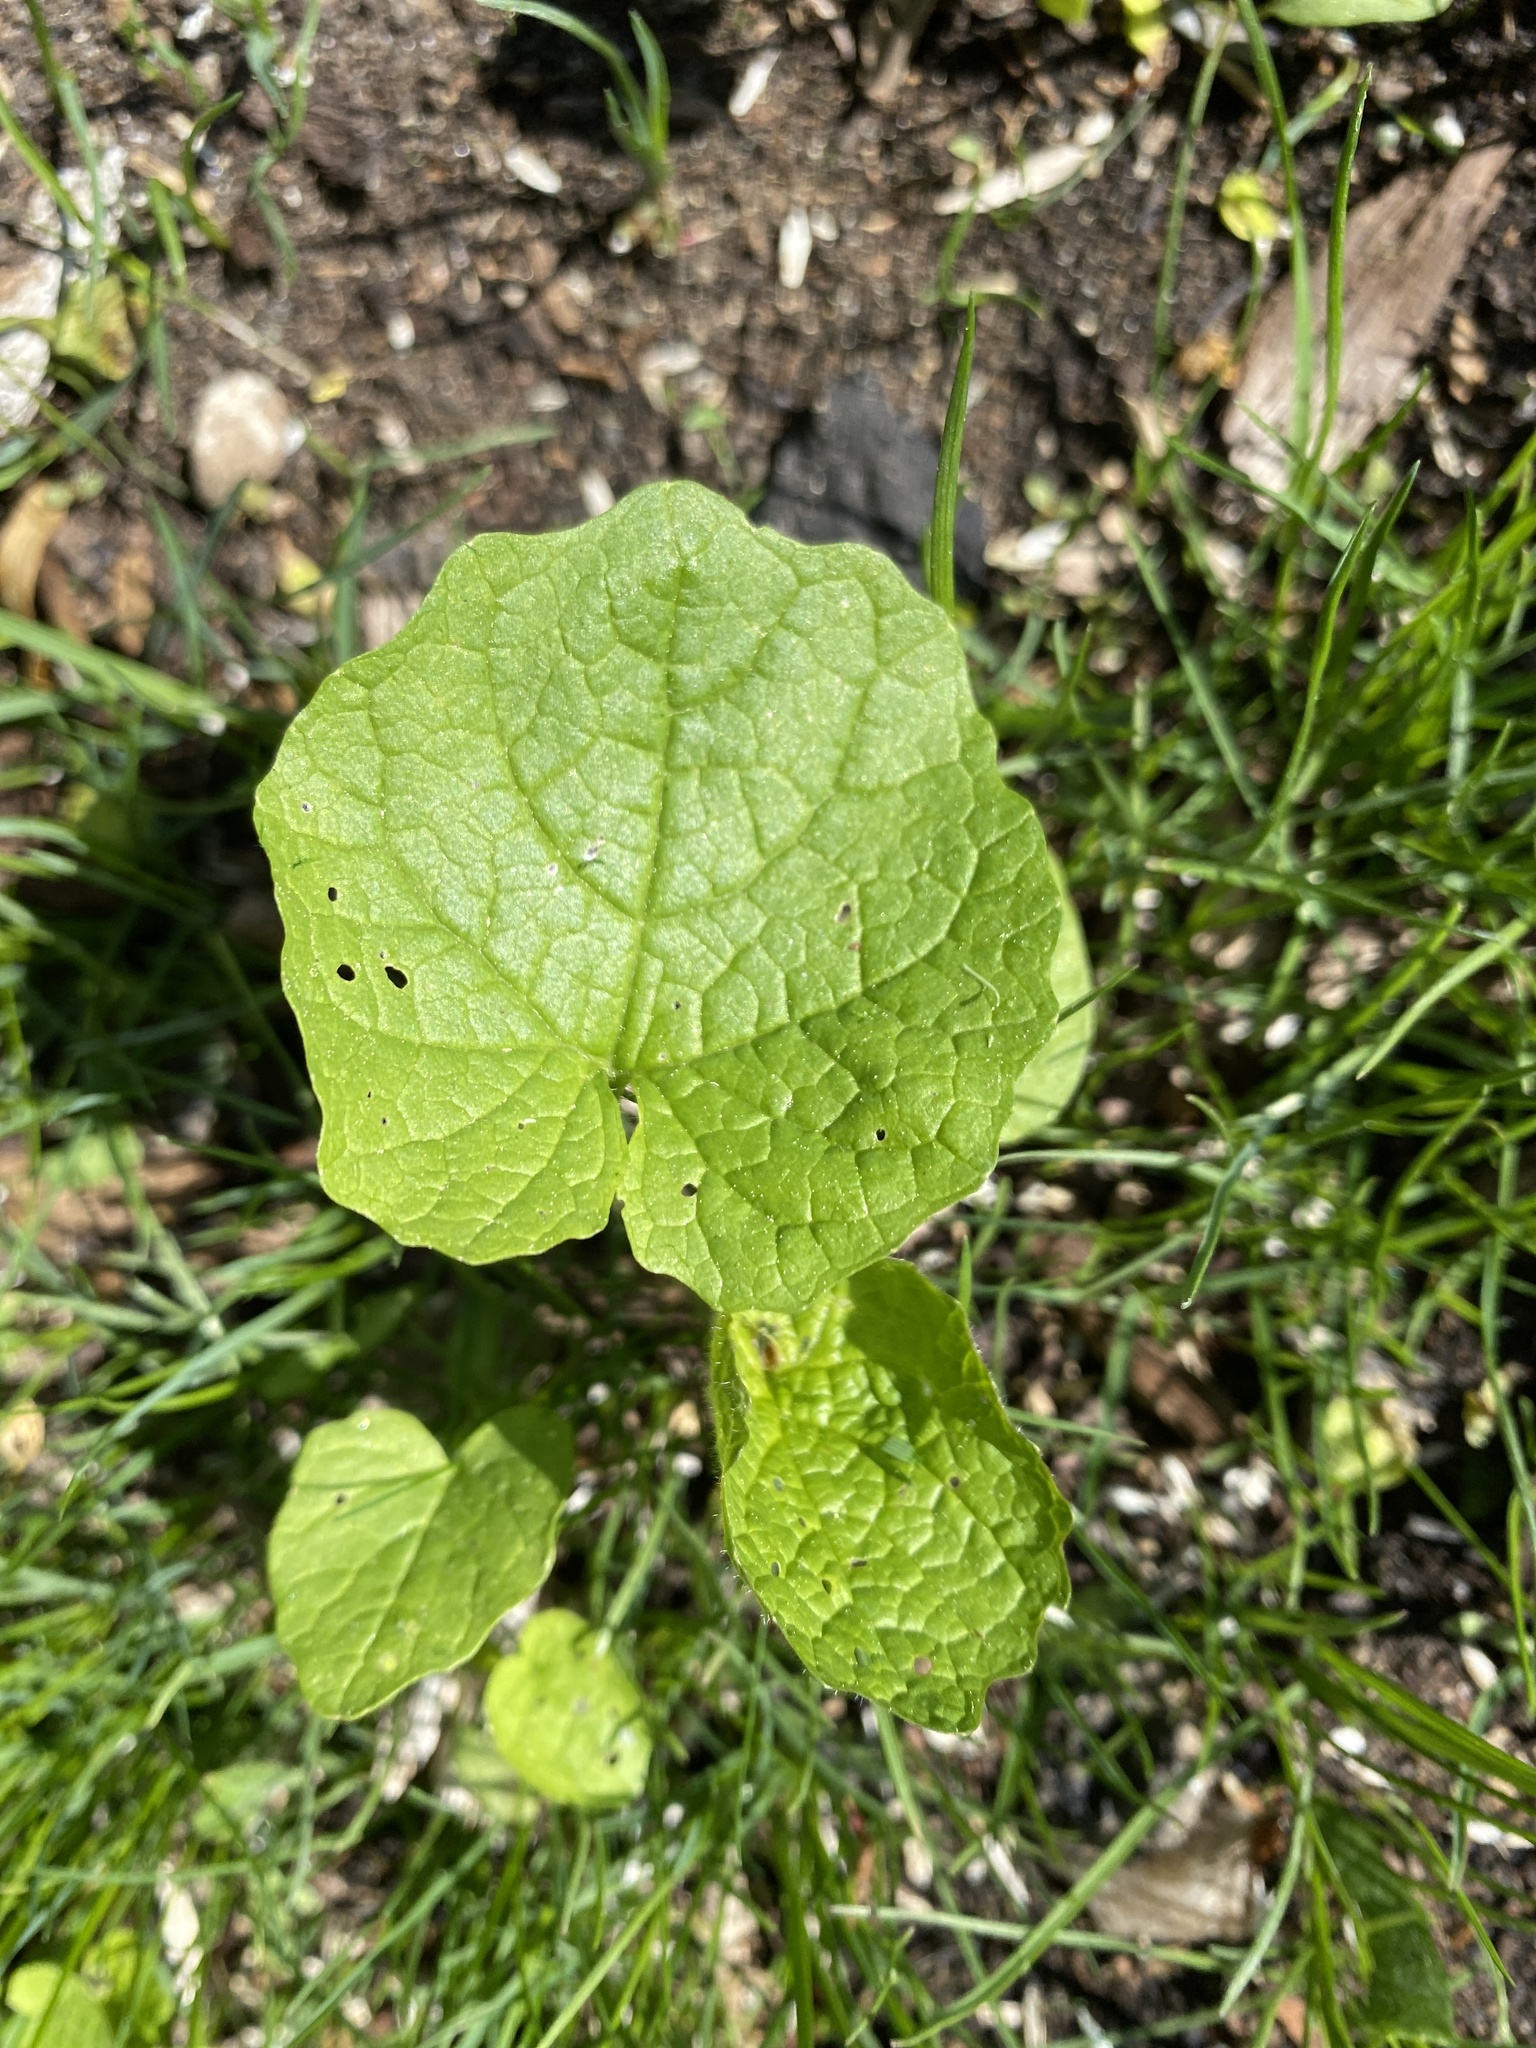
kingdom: Plantae
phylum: Tracheophyta
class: Magnoliopsida
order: Brassicales
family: Brassicaceae
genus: Alliaria
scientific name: Alliaria petiolata
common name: Garlic mustard
